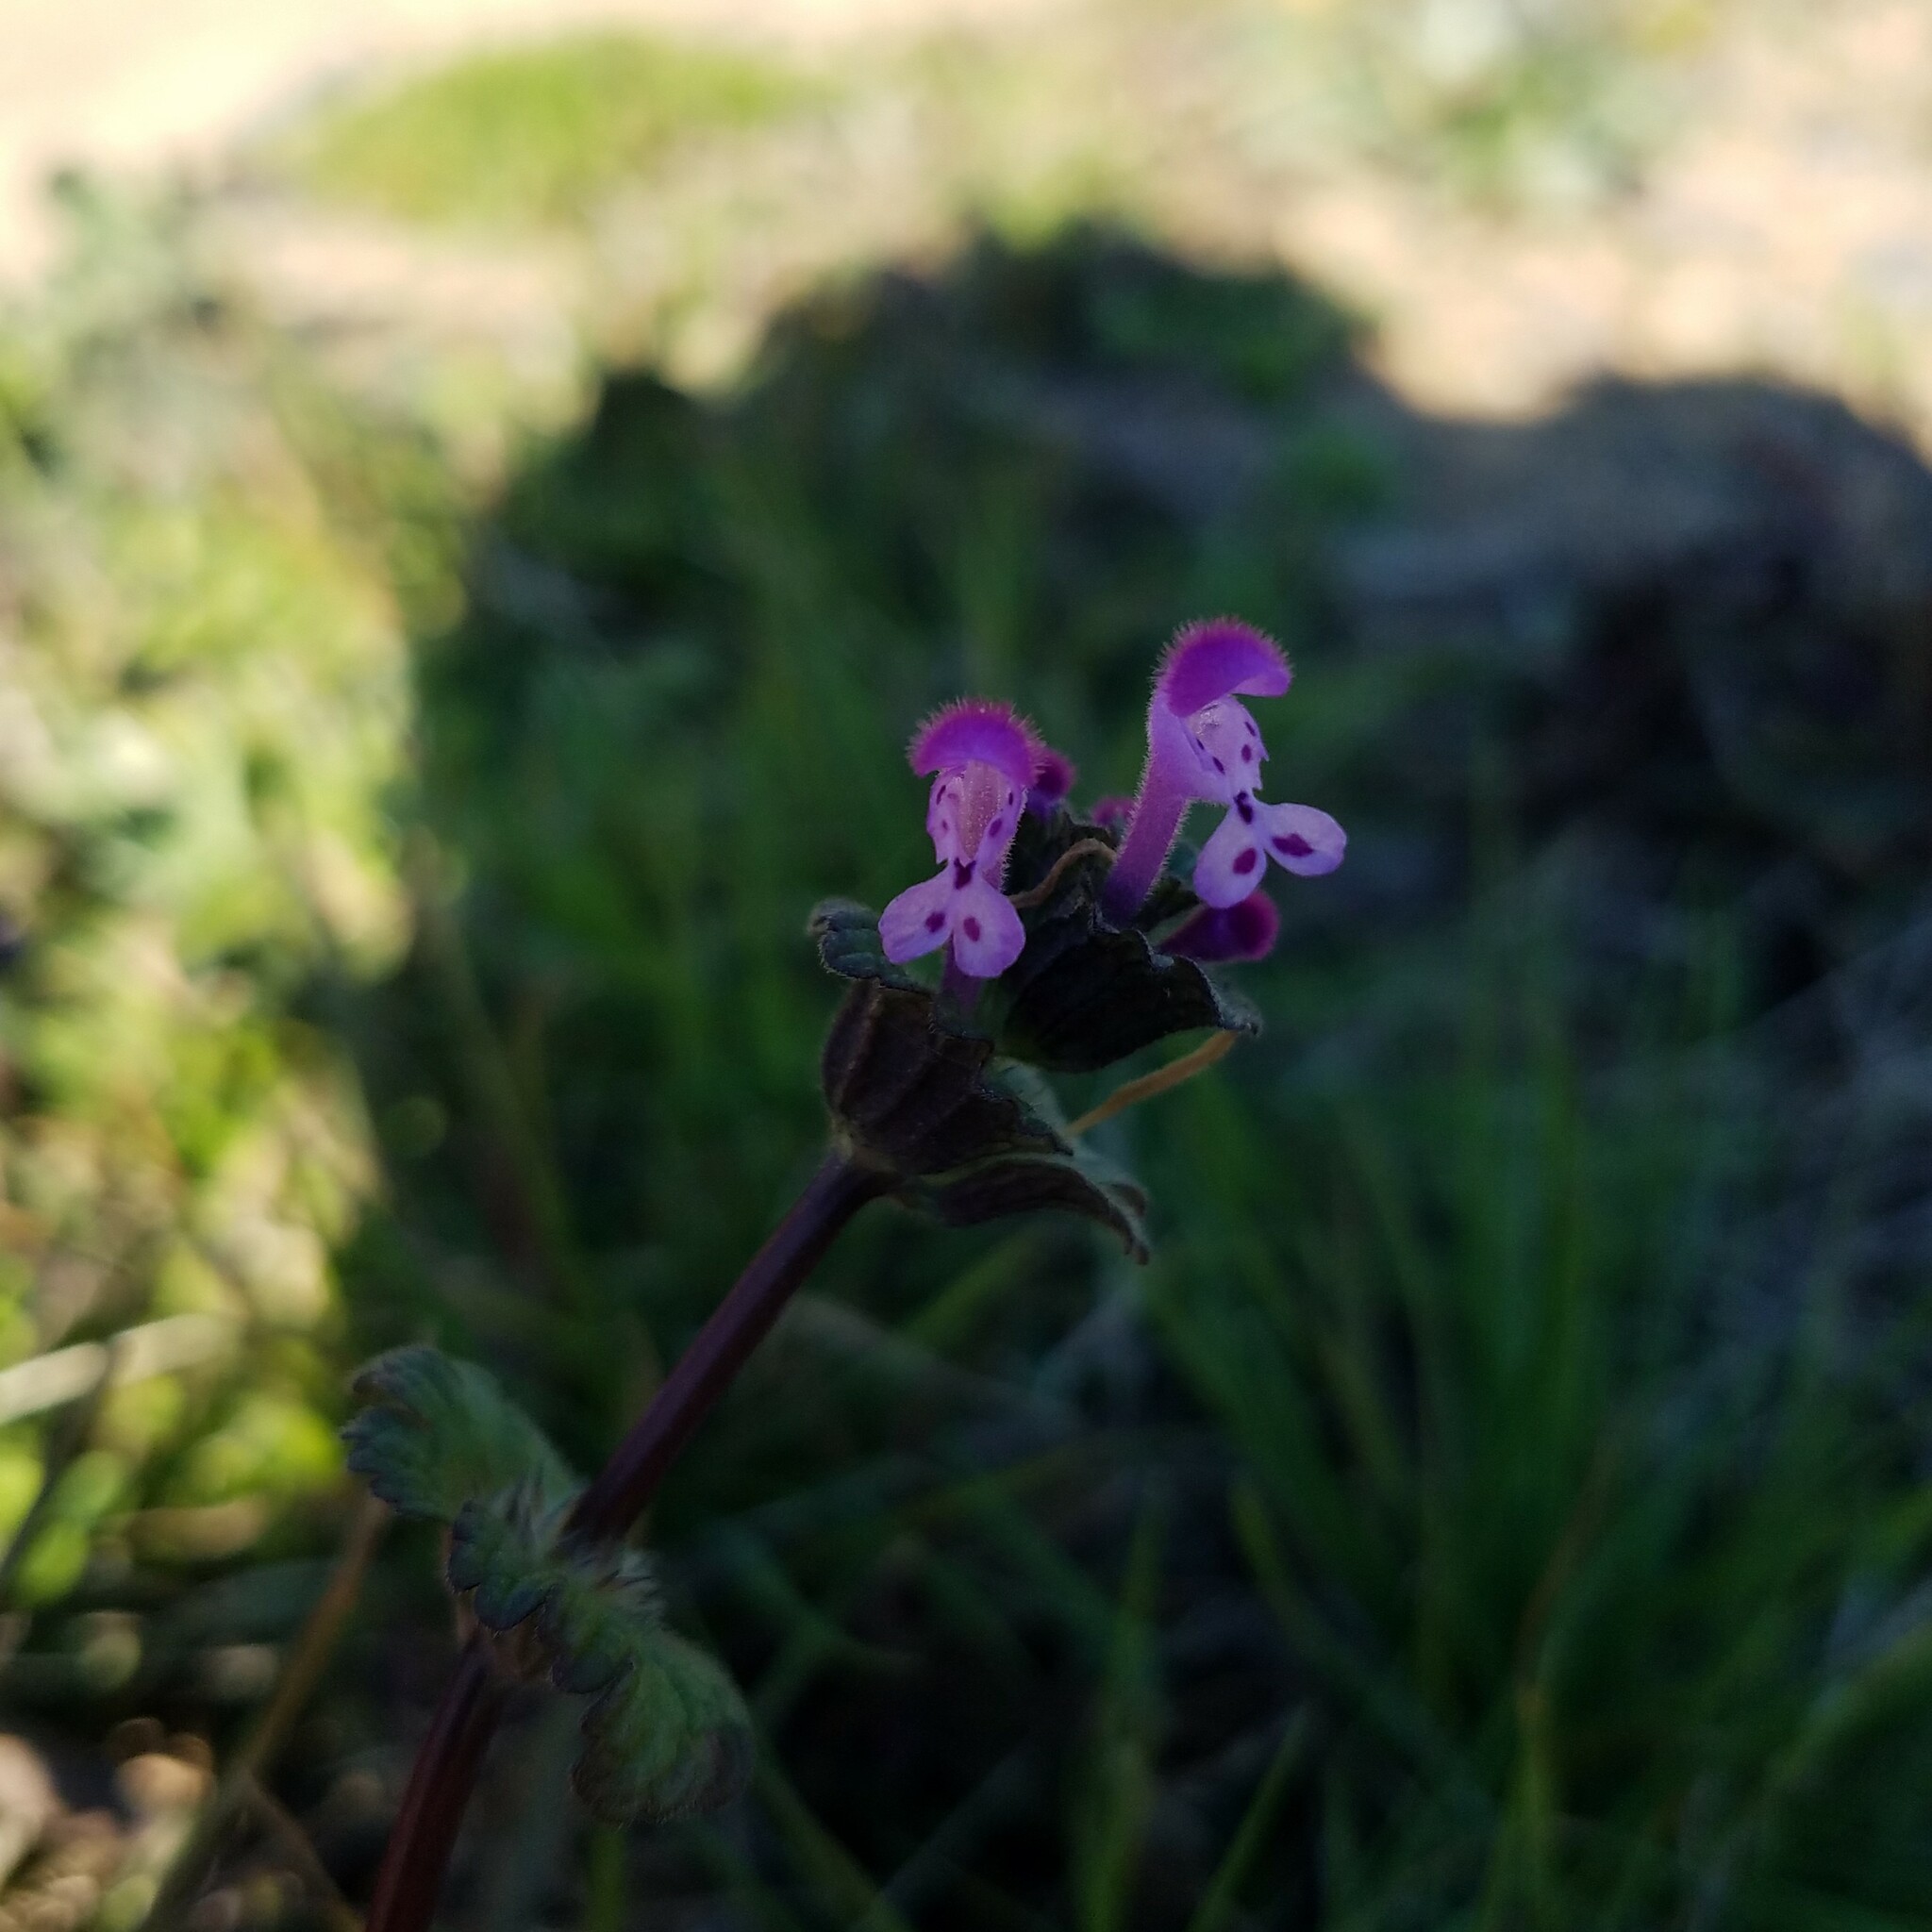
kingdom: Plantae
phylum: Tracheophyta
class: Magnoliopsida
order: Lamiales
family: Lamiaceae
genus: Lamium
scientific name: Lamium amplexicaule
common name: Henbit dead-nettle
